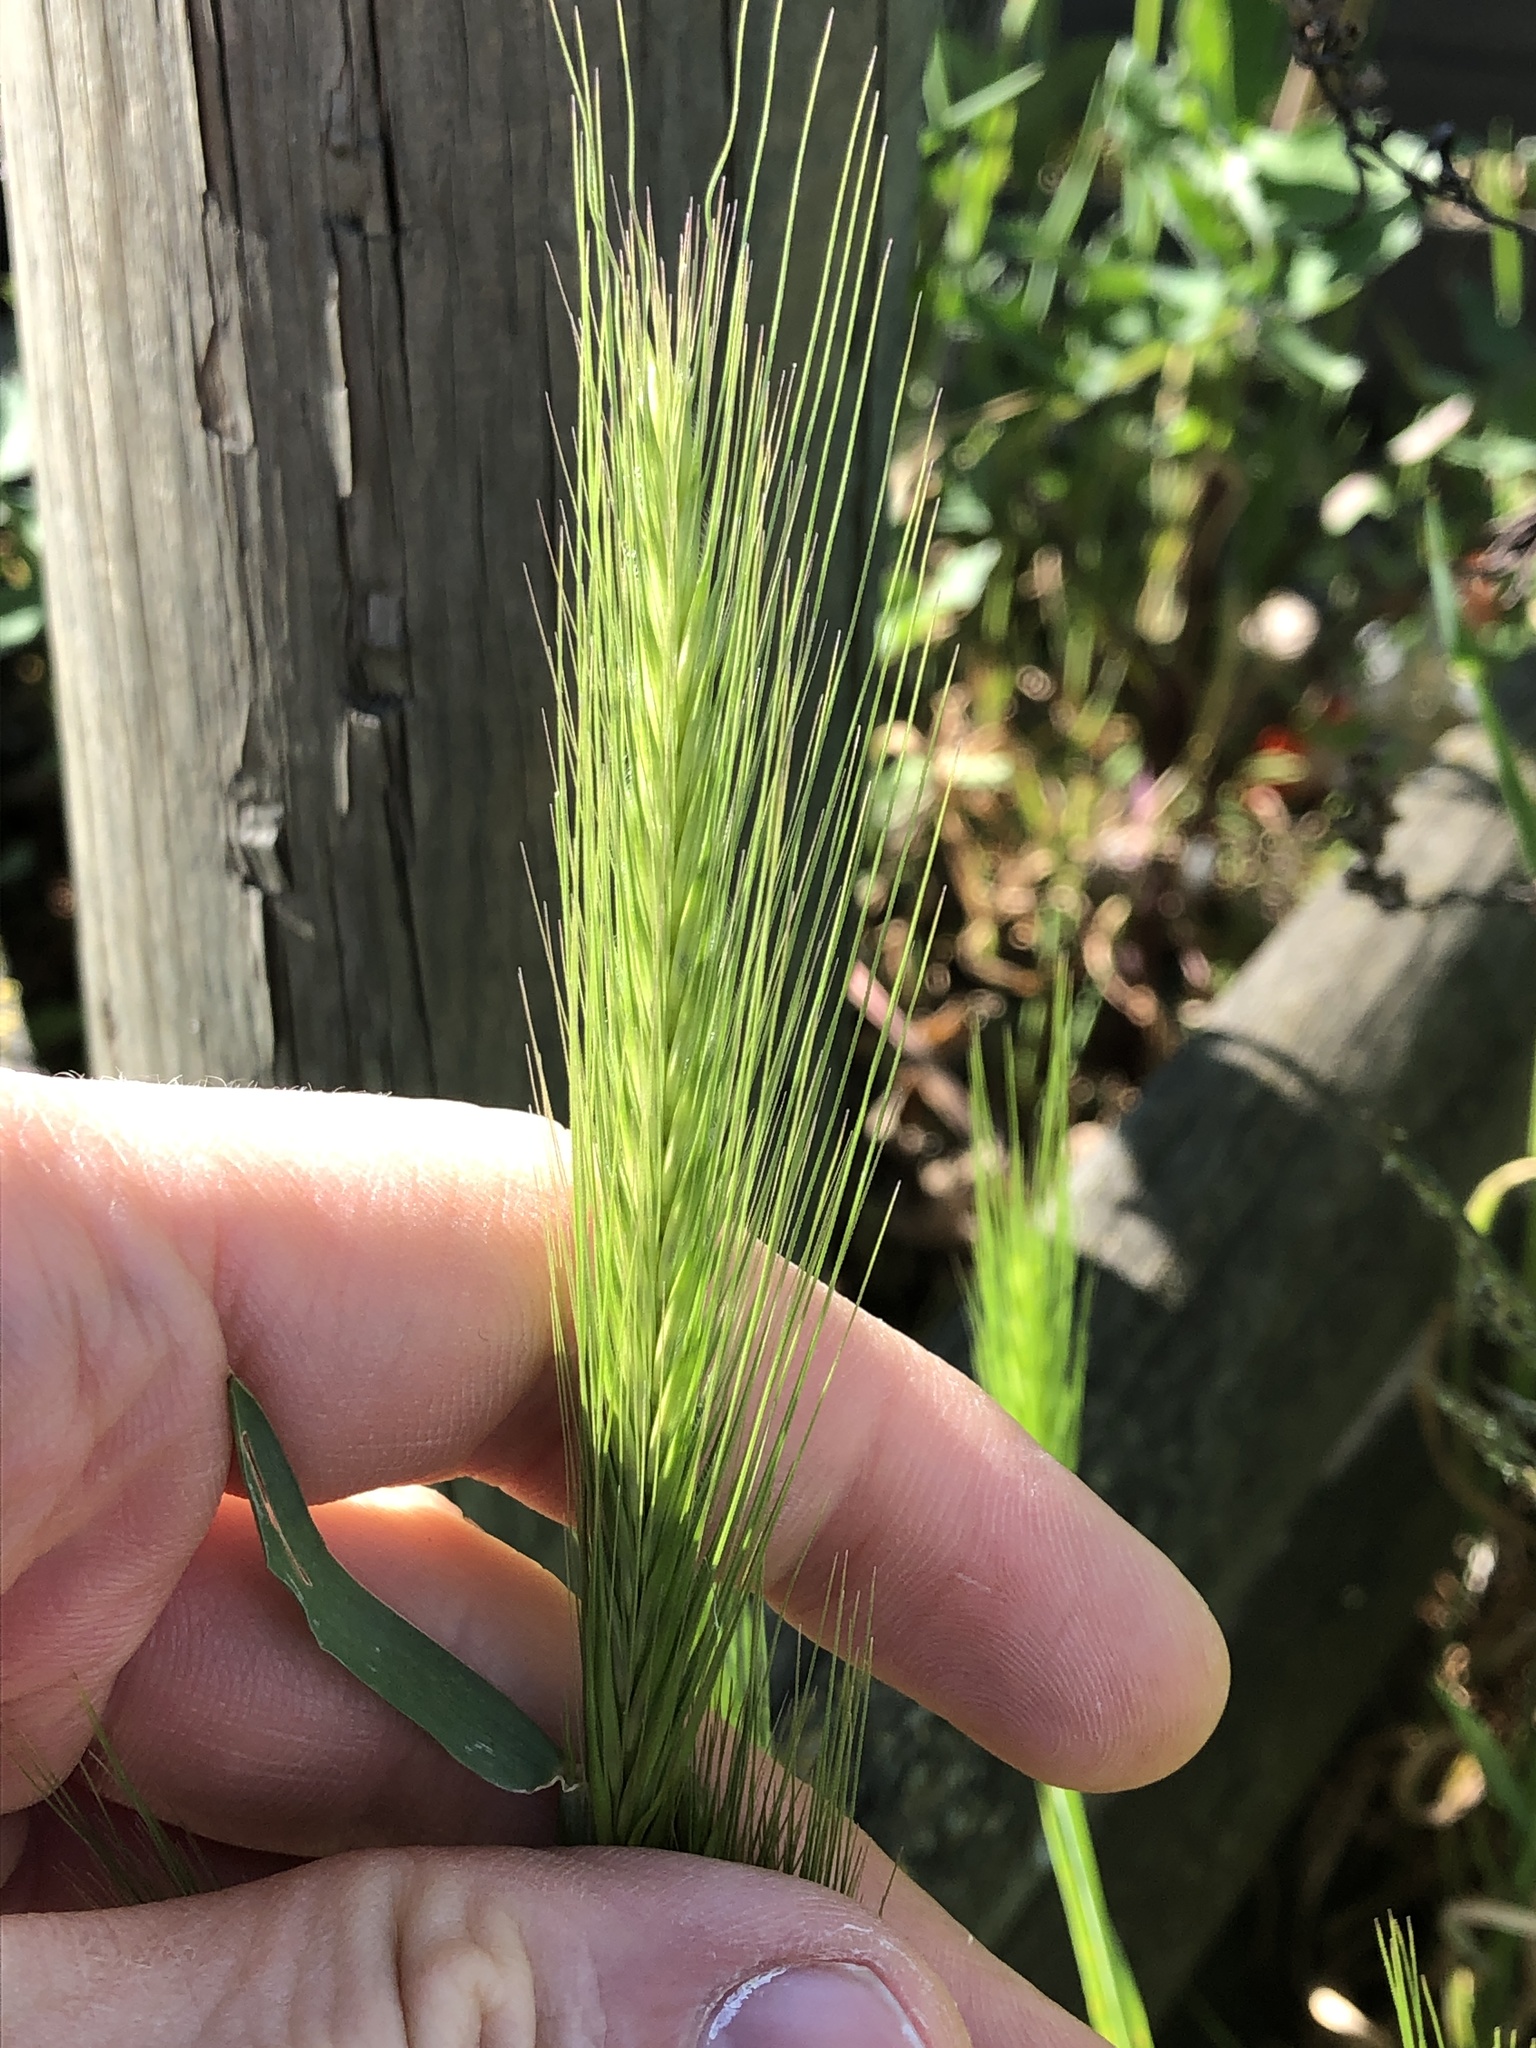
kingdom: Plantae
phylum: Tracheophyta
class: Liliopsida
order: Poales
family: Poaceae
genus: Hordeum
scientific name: Hordeum murinum
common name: Wall barley
